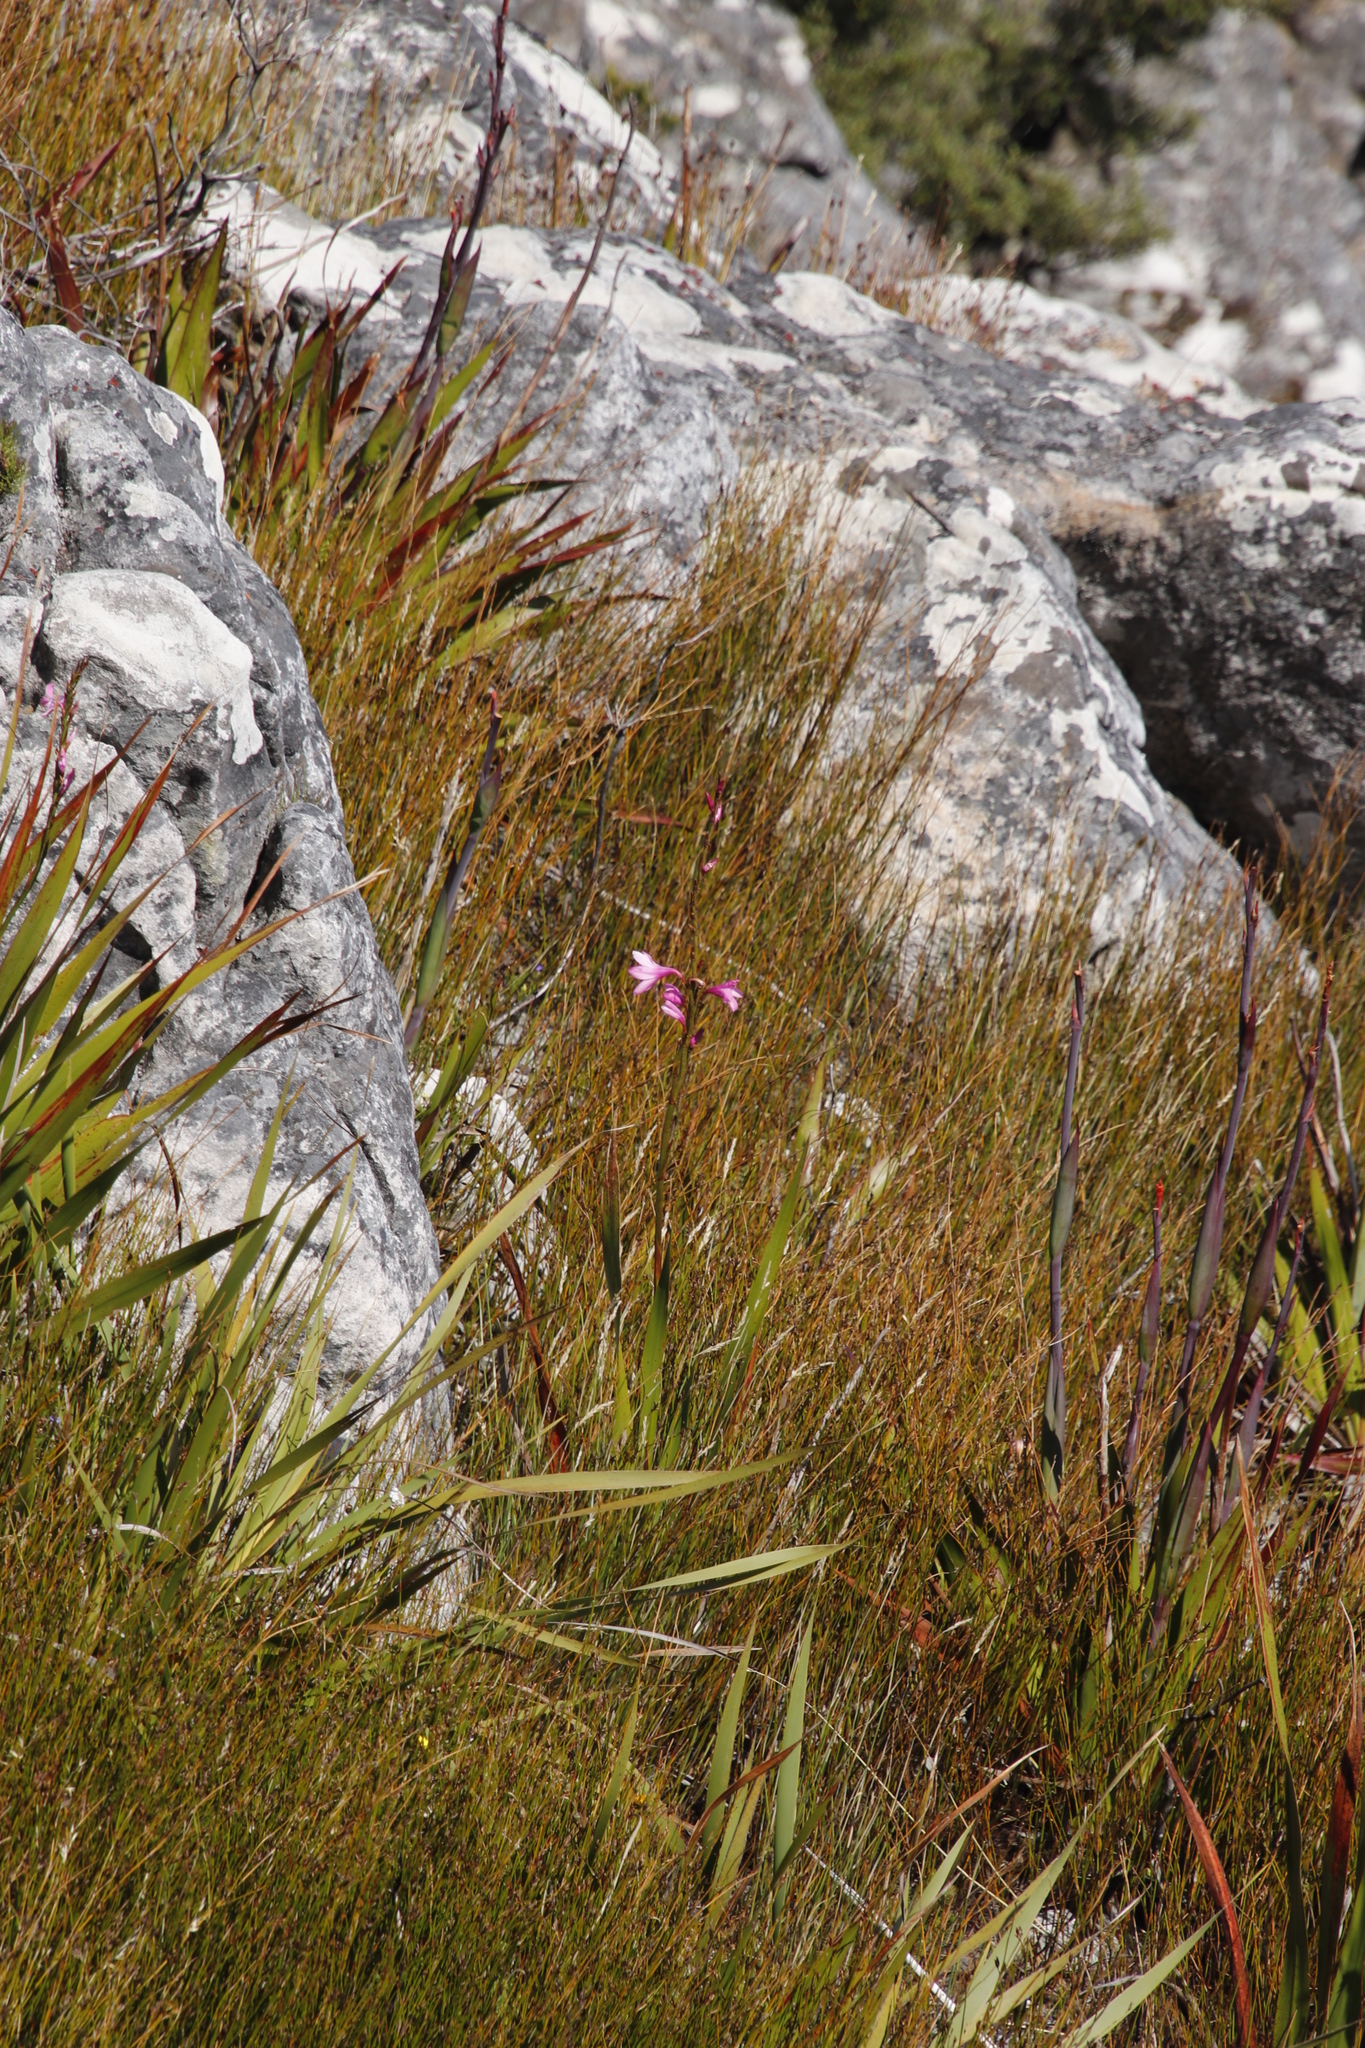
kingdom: Plantae
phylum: Tracheophyta
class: Liliopsida
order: Asparagales
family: Iridaceae
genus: Watsonia
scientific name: Watsonia borbonica
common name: Bugle-lily
